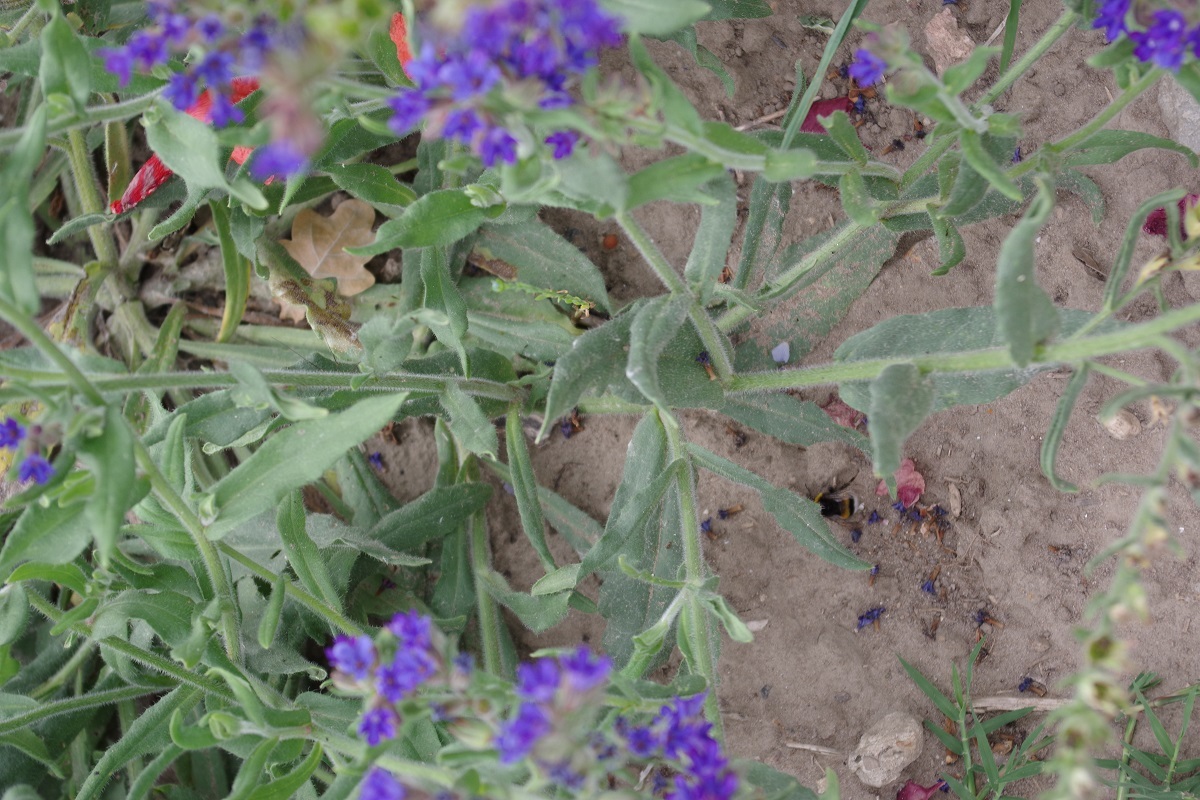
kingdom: Plantae
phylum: Tracheophyta
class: Magnoliopsida
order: Boraginales
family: Boraginaceae
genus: Anchusa
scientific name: Anchusa officinalis
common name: Alkanet
